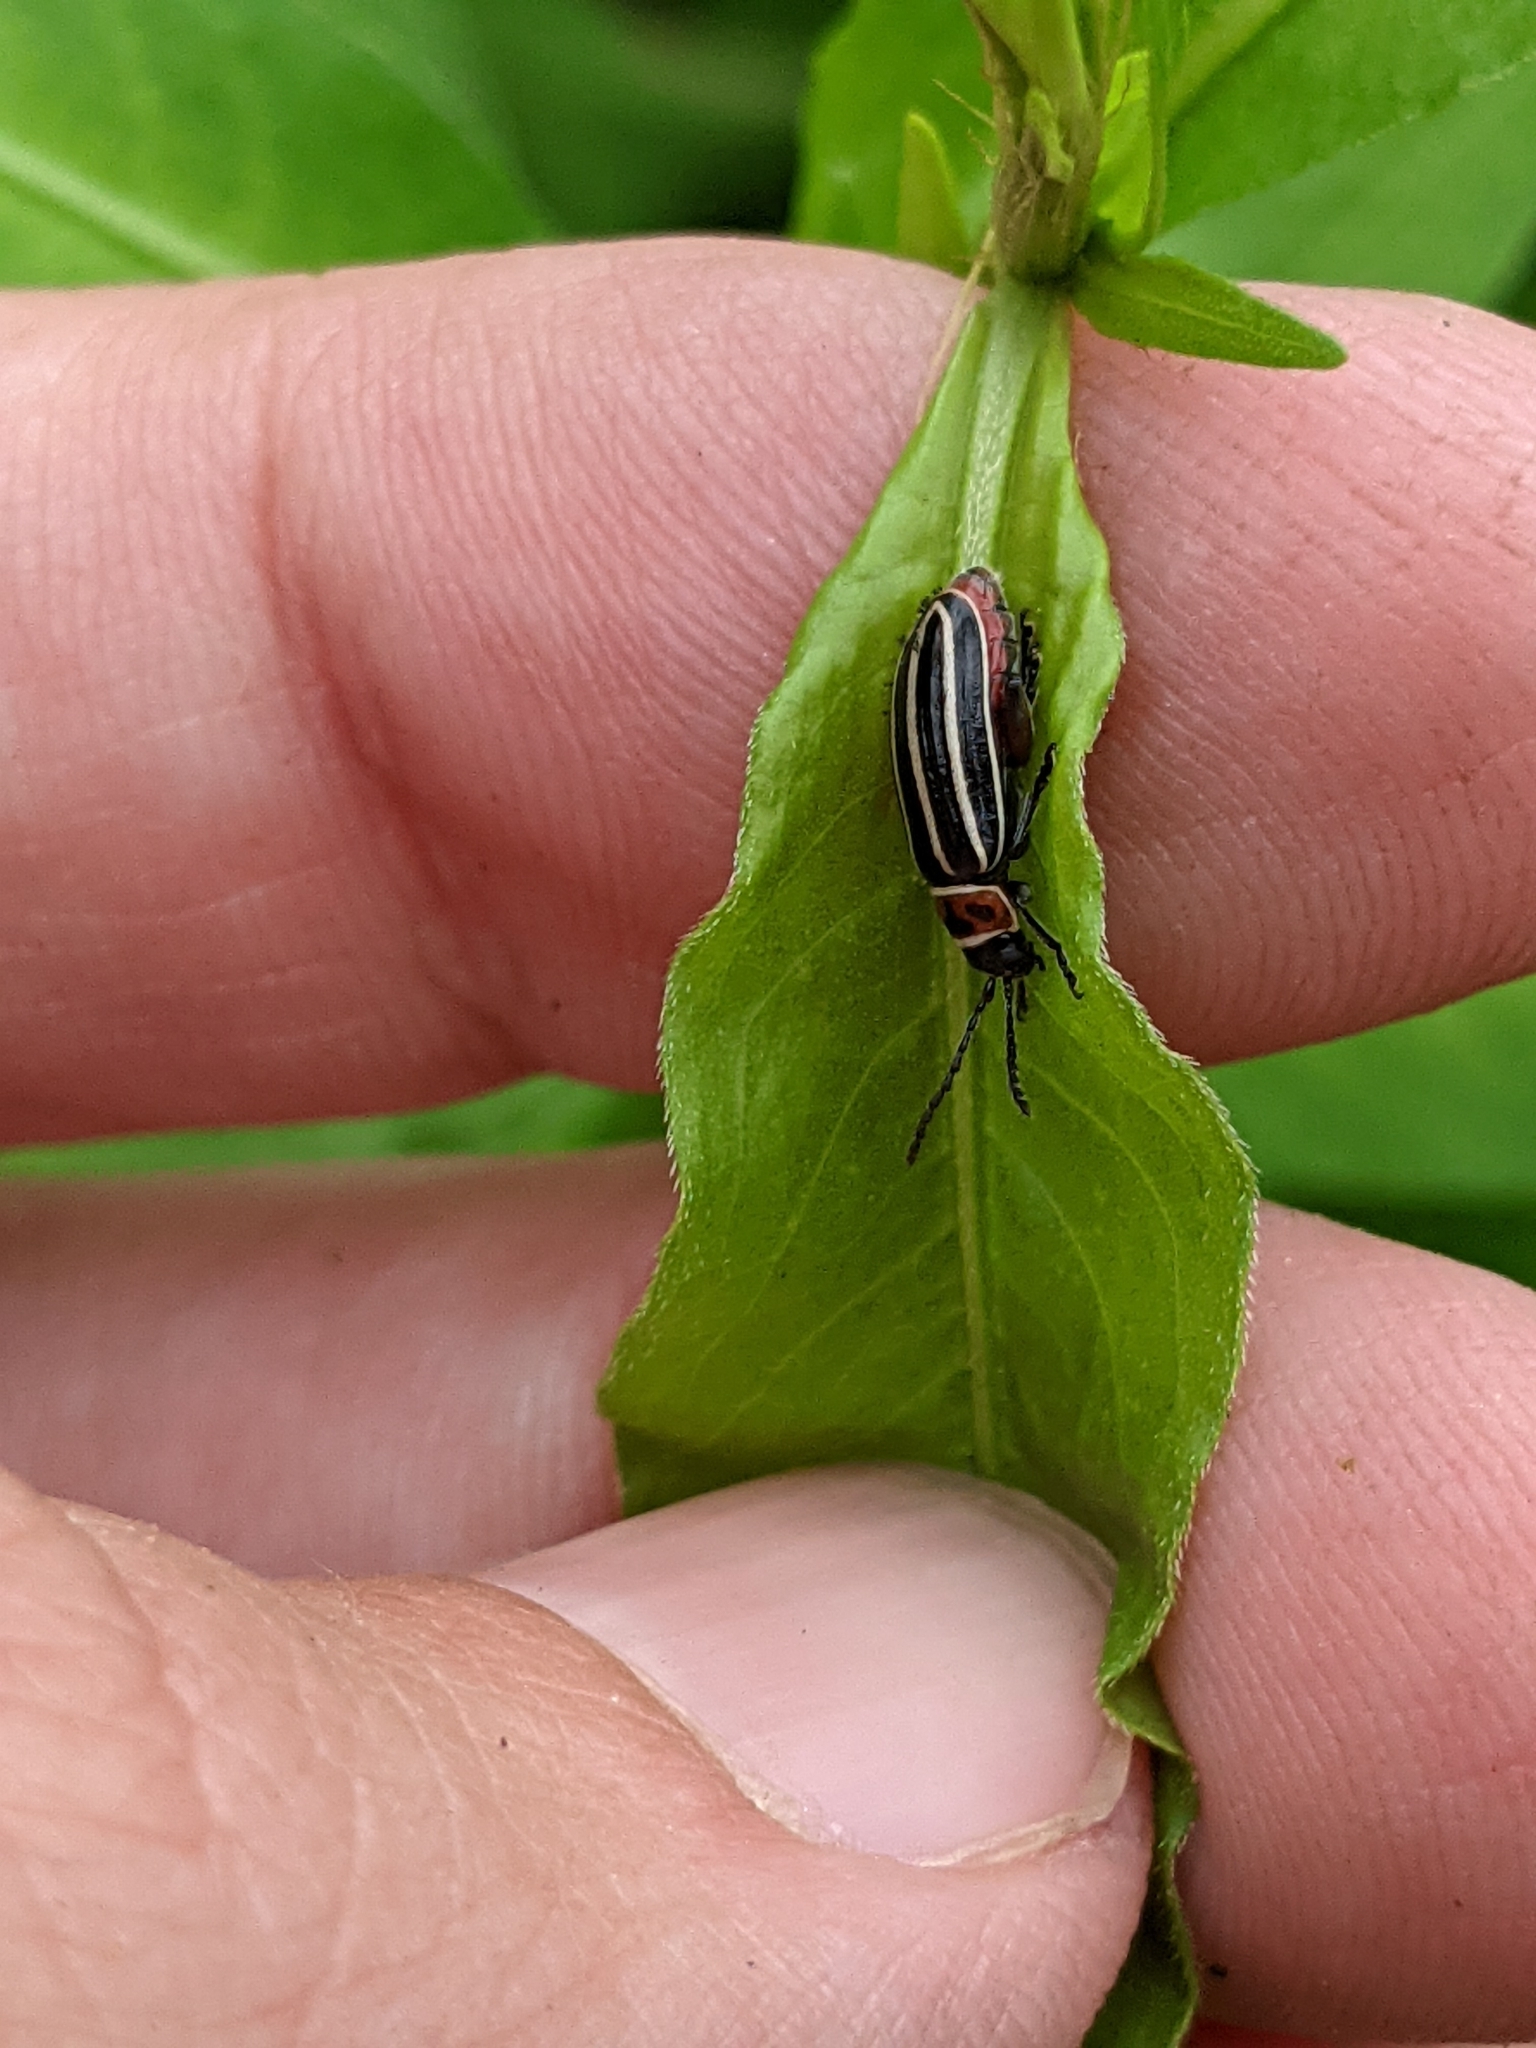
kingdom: Animalia
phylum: Arthropoda
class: Insecta
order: Coleoptera
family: Chrysomelidae
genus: Disonycha
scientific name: Disonycha procera
